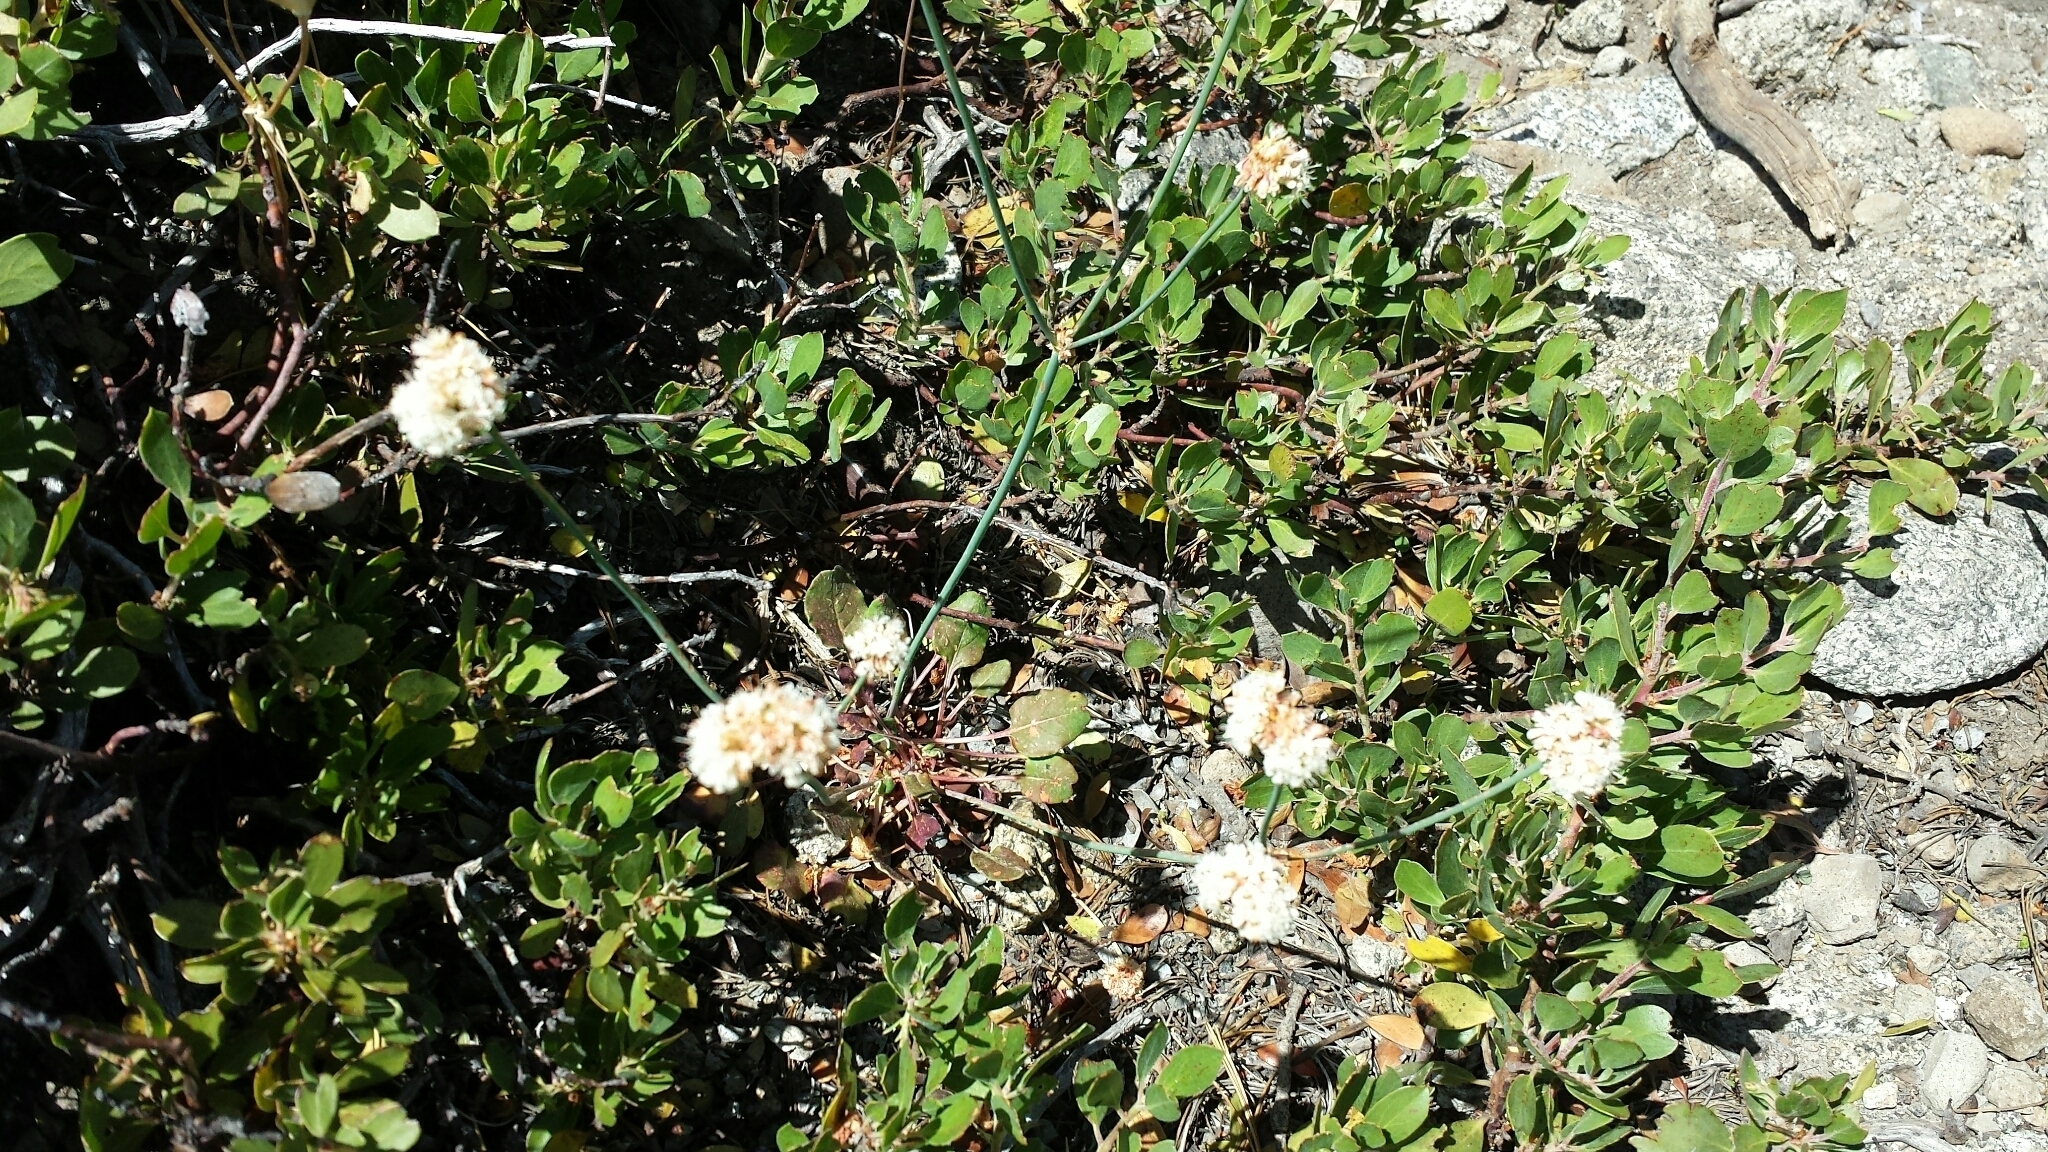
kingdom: Plantae
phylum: Tracheophyta
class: Magnoliopsida
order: Caryophyllales
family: Polygonaceae
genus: Eriogonum
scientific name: Eriogonum nudum
